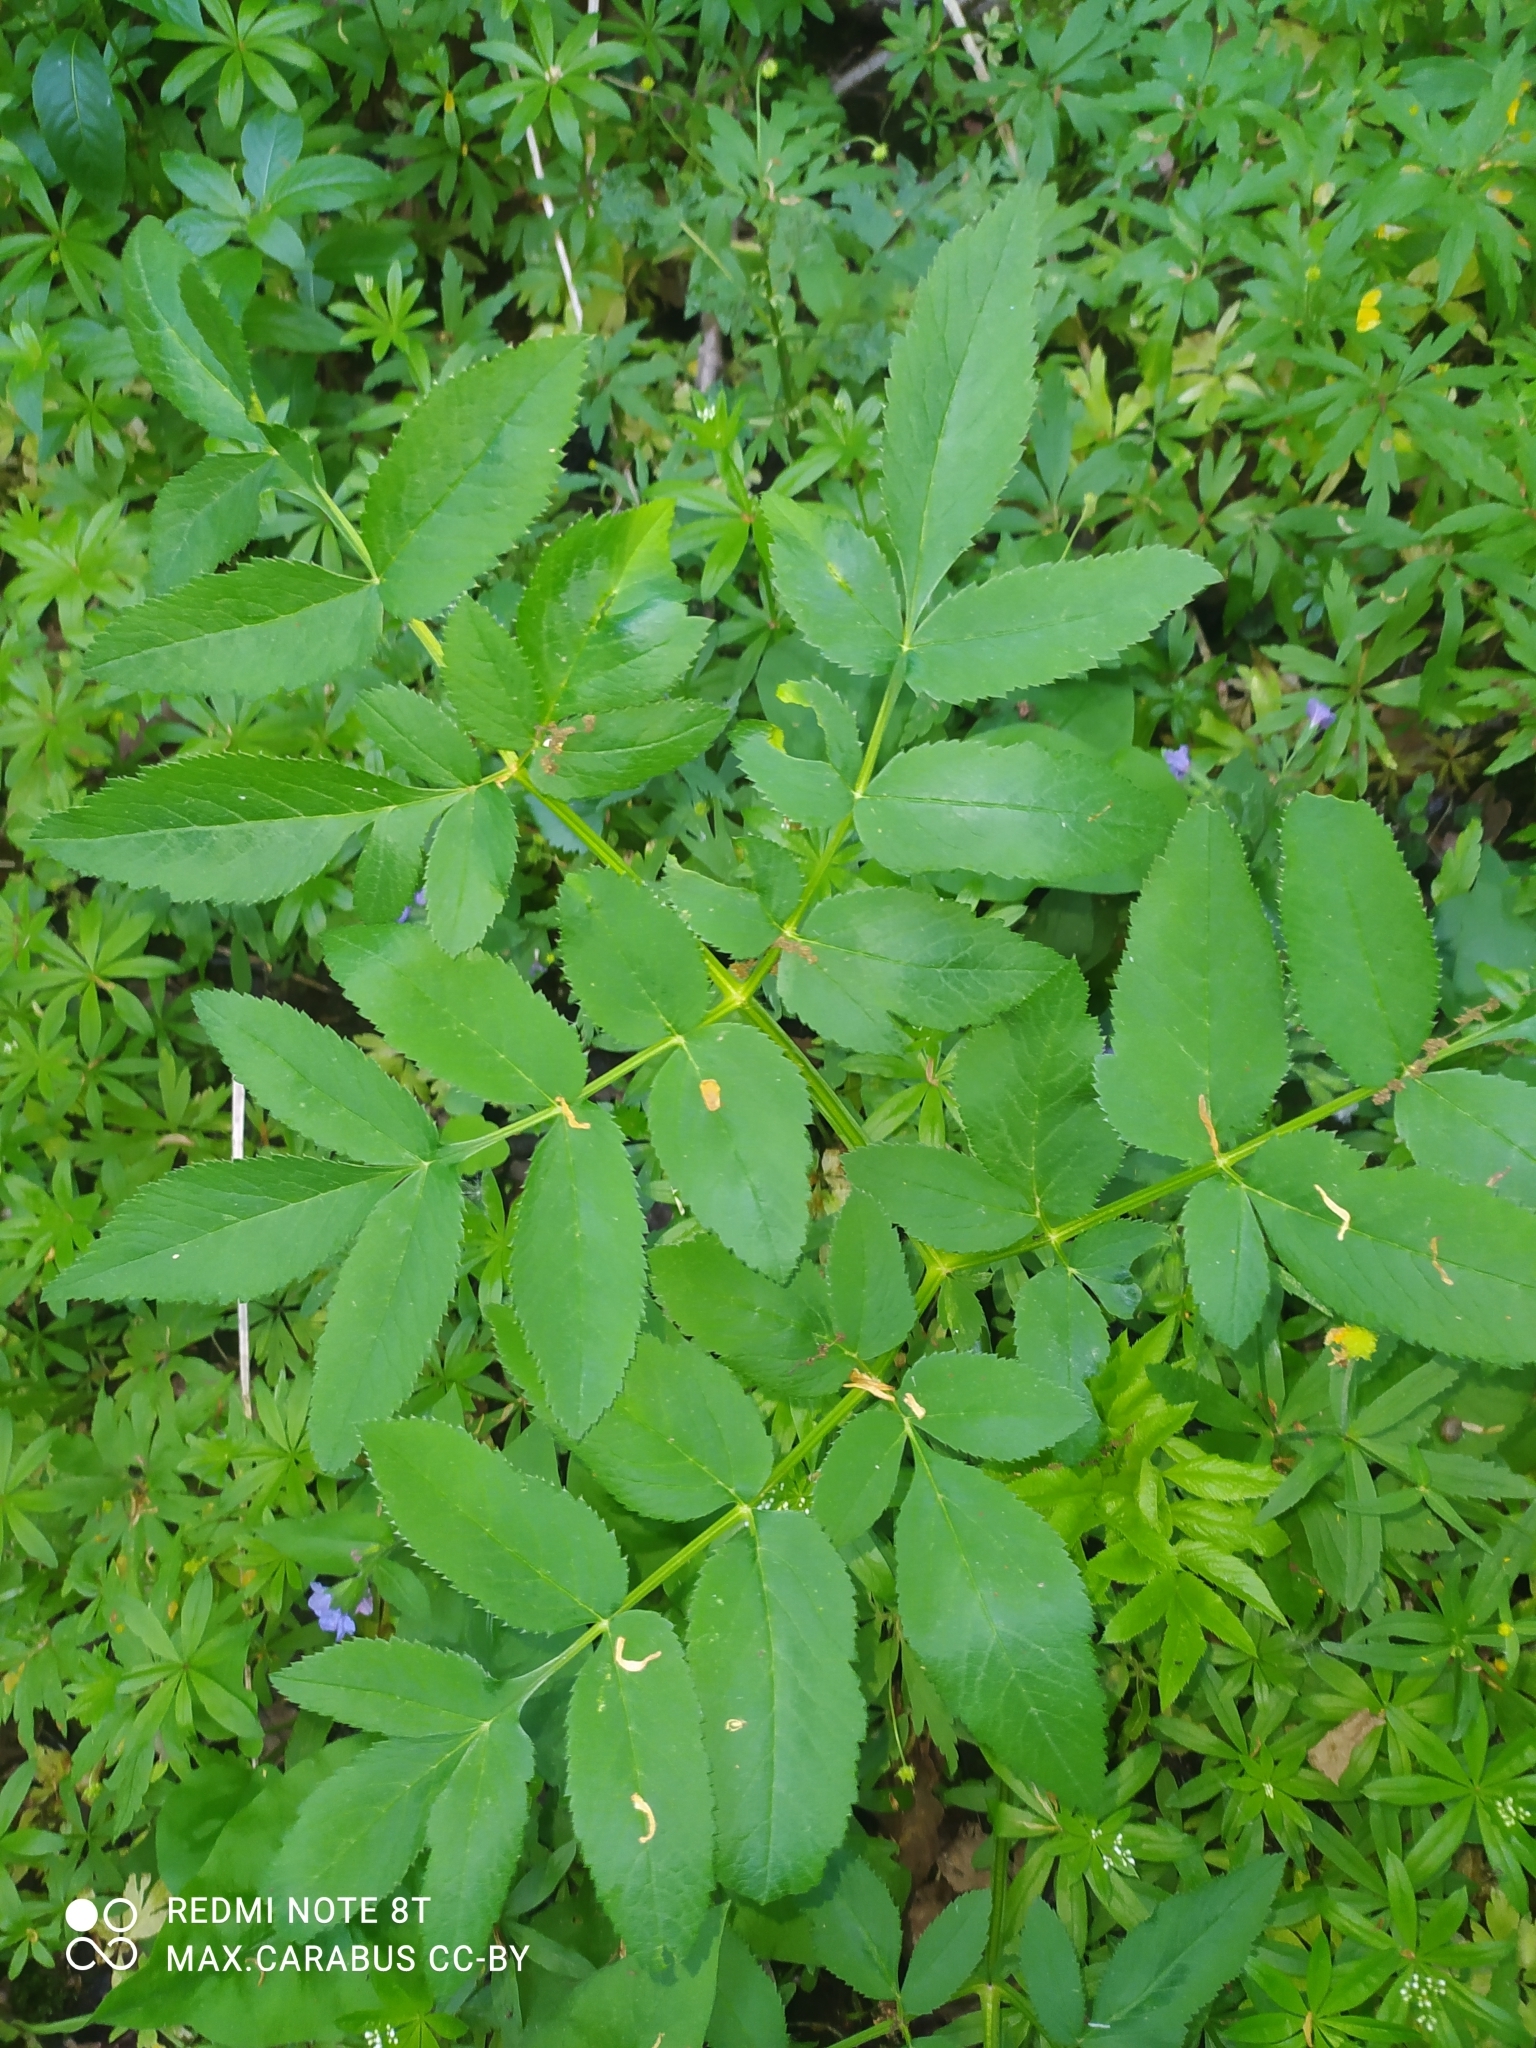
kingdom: Plantae
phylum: Tracheophyta
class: Magnoliopsida
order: Apiales
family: Apiaceae
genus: Angelica
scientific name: Angelica sylvestris
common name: Wild angelica
